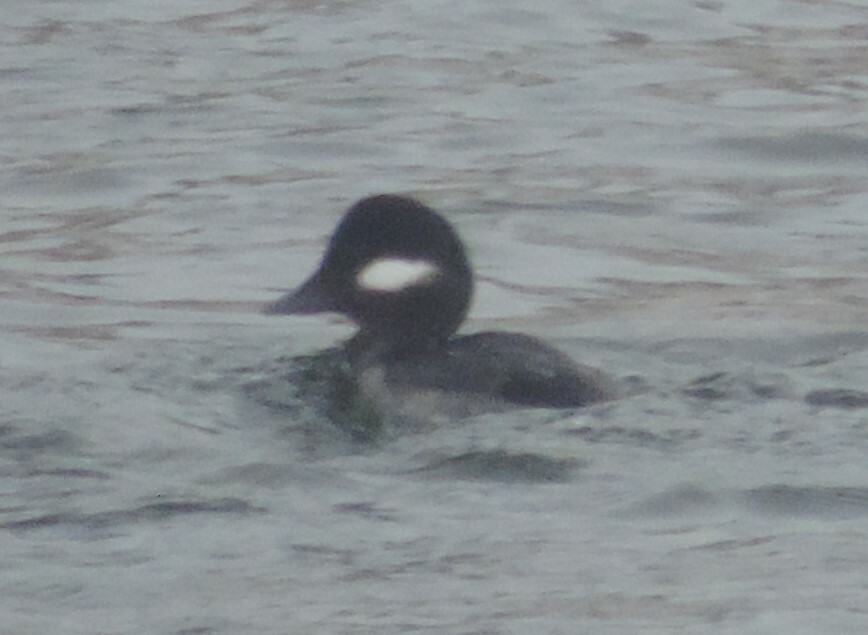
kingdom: Animalia
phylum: Chordata
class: Aves
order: Anseriformes
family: Anatidae
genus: Bucephala
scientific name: Bucephala albeola
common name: Bufflehead
